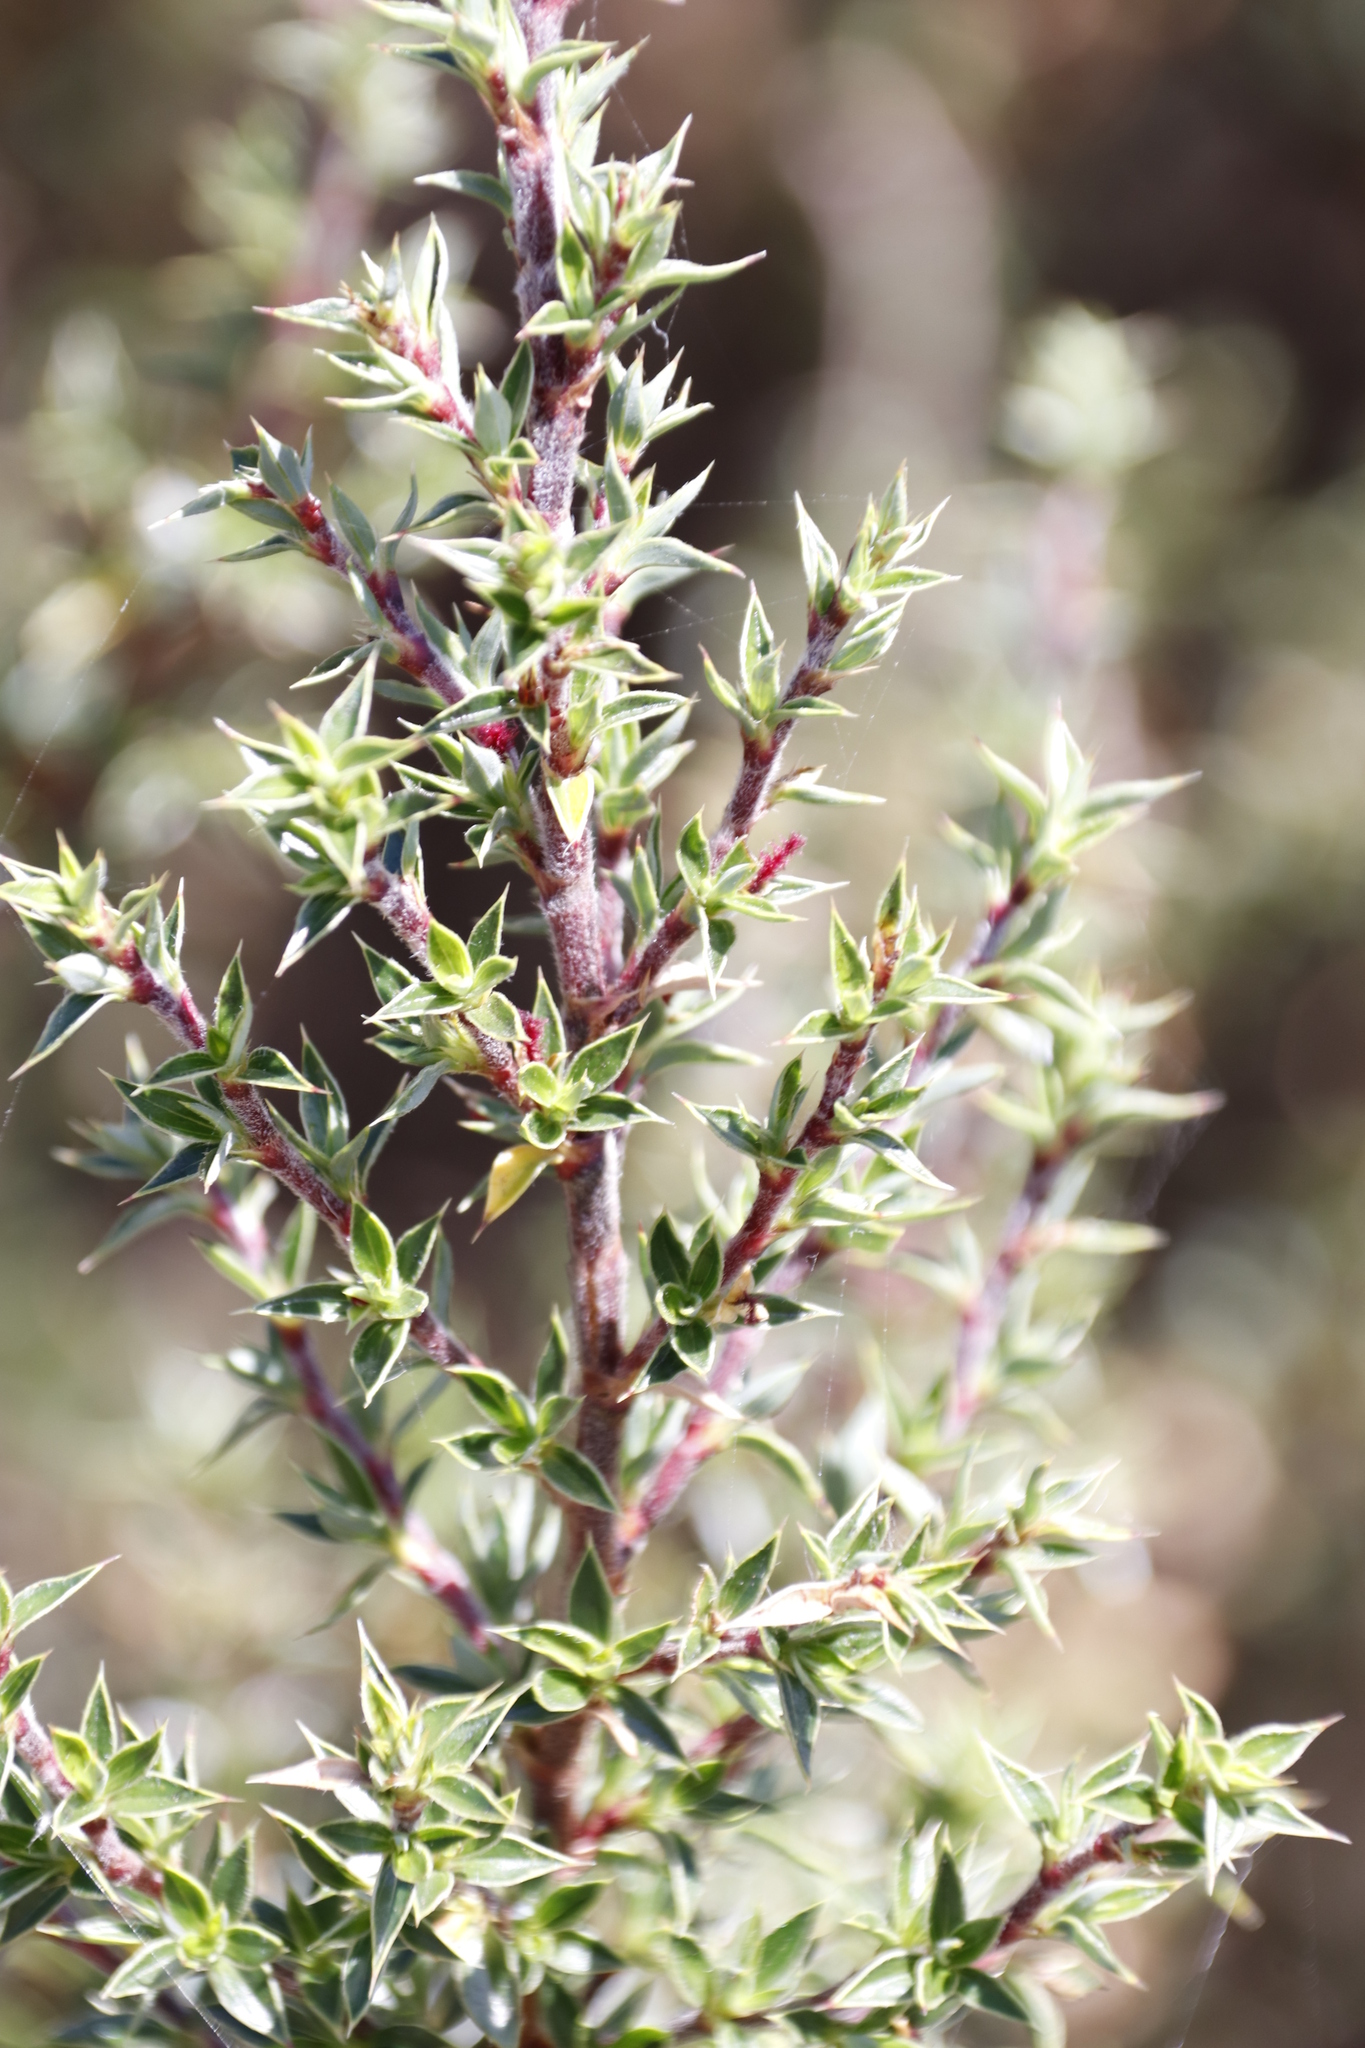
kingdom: Plantae
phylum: Tracheophyta
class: Magnoliopsida
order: Rosales
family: Rosaceae
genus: Cliffortia
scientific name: Cliffortia ruscifolia
